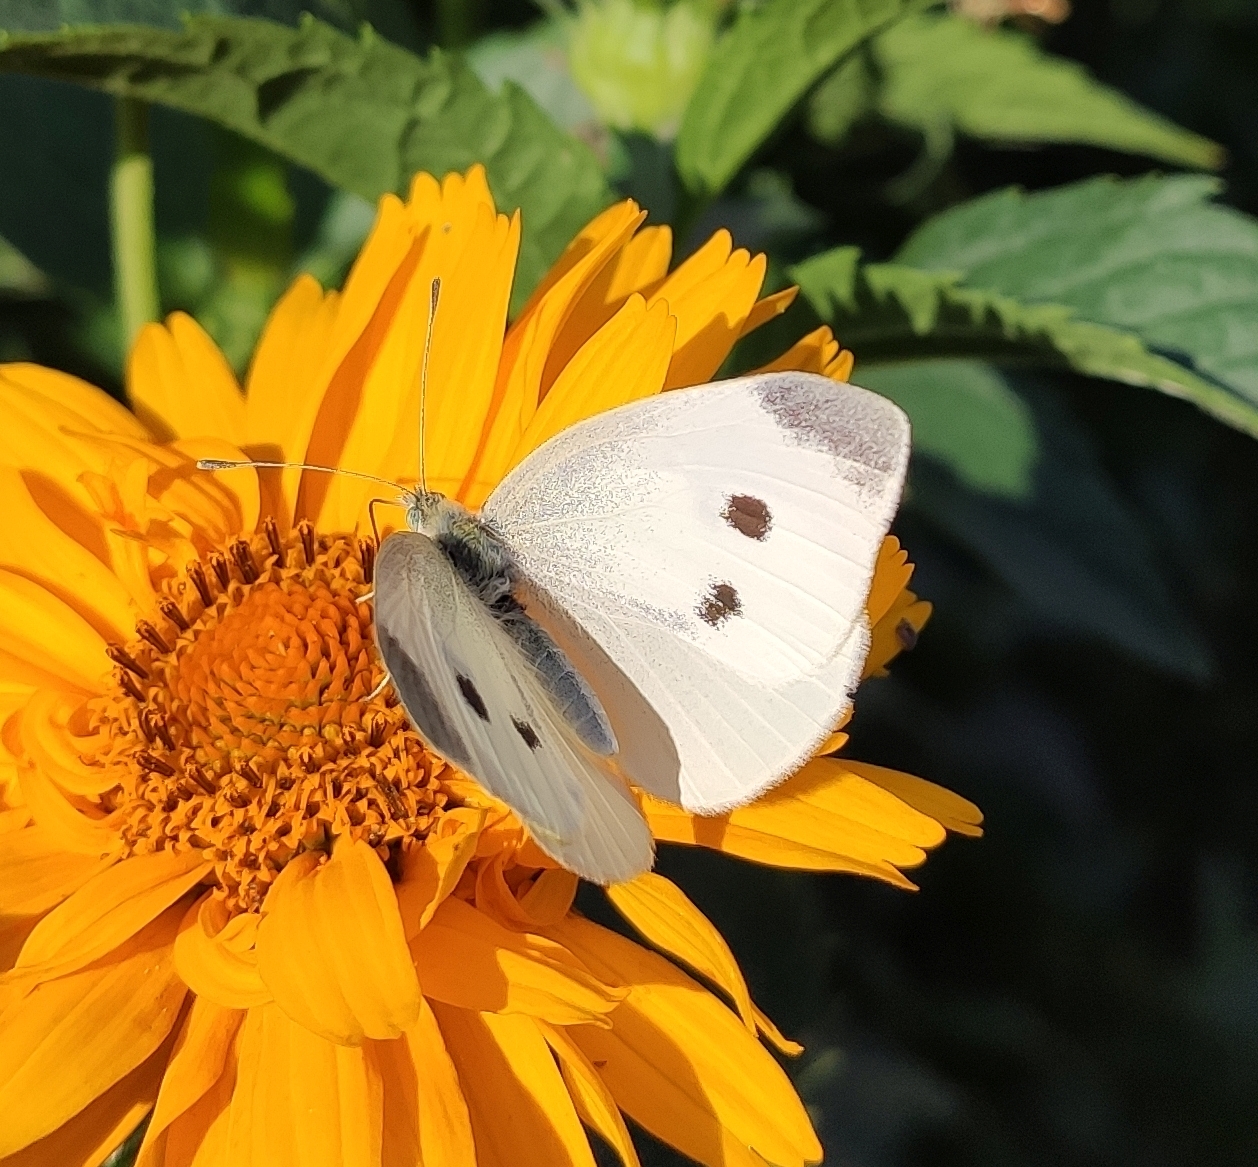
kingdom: Animalia
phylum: Arthropoda
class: Insecta
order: Lepidoptera
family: Pieridae
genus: Pieris
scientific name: Pieris rapae
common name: Small white
